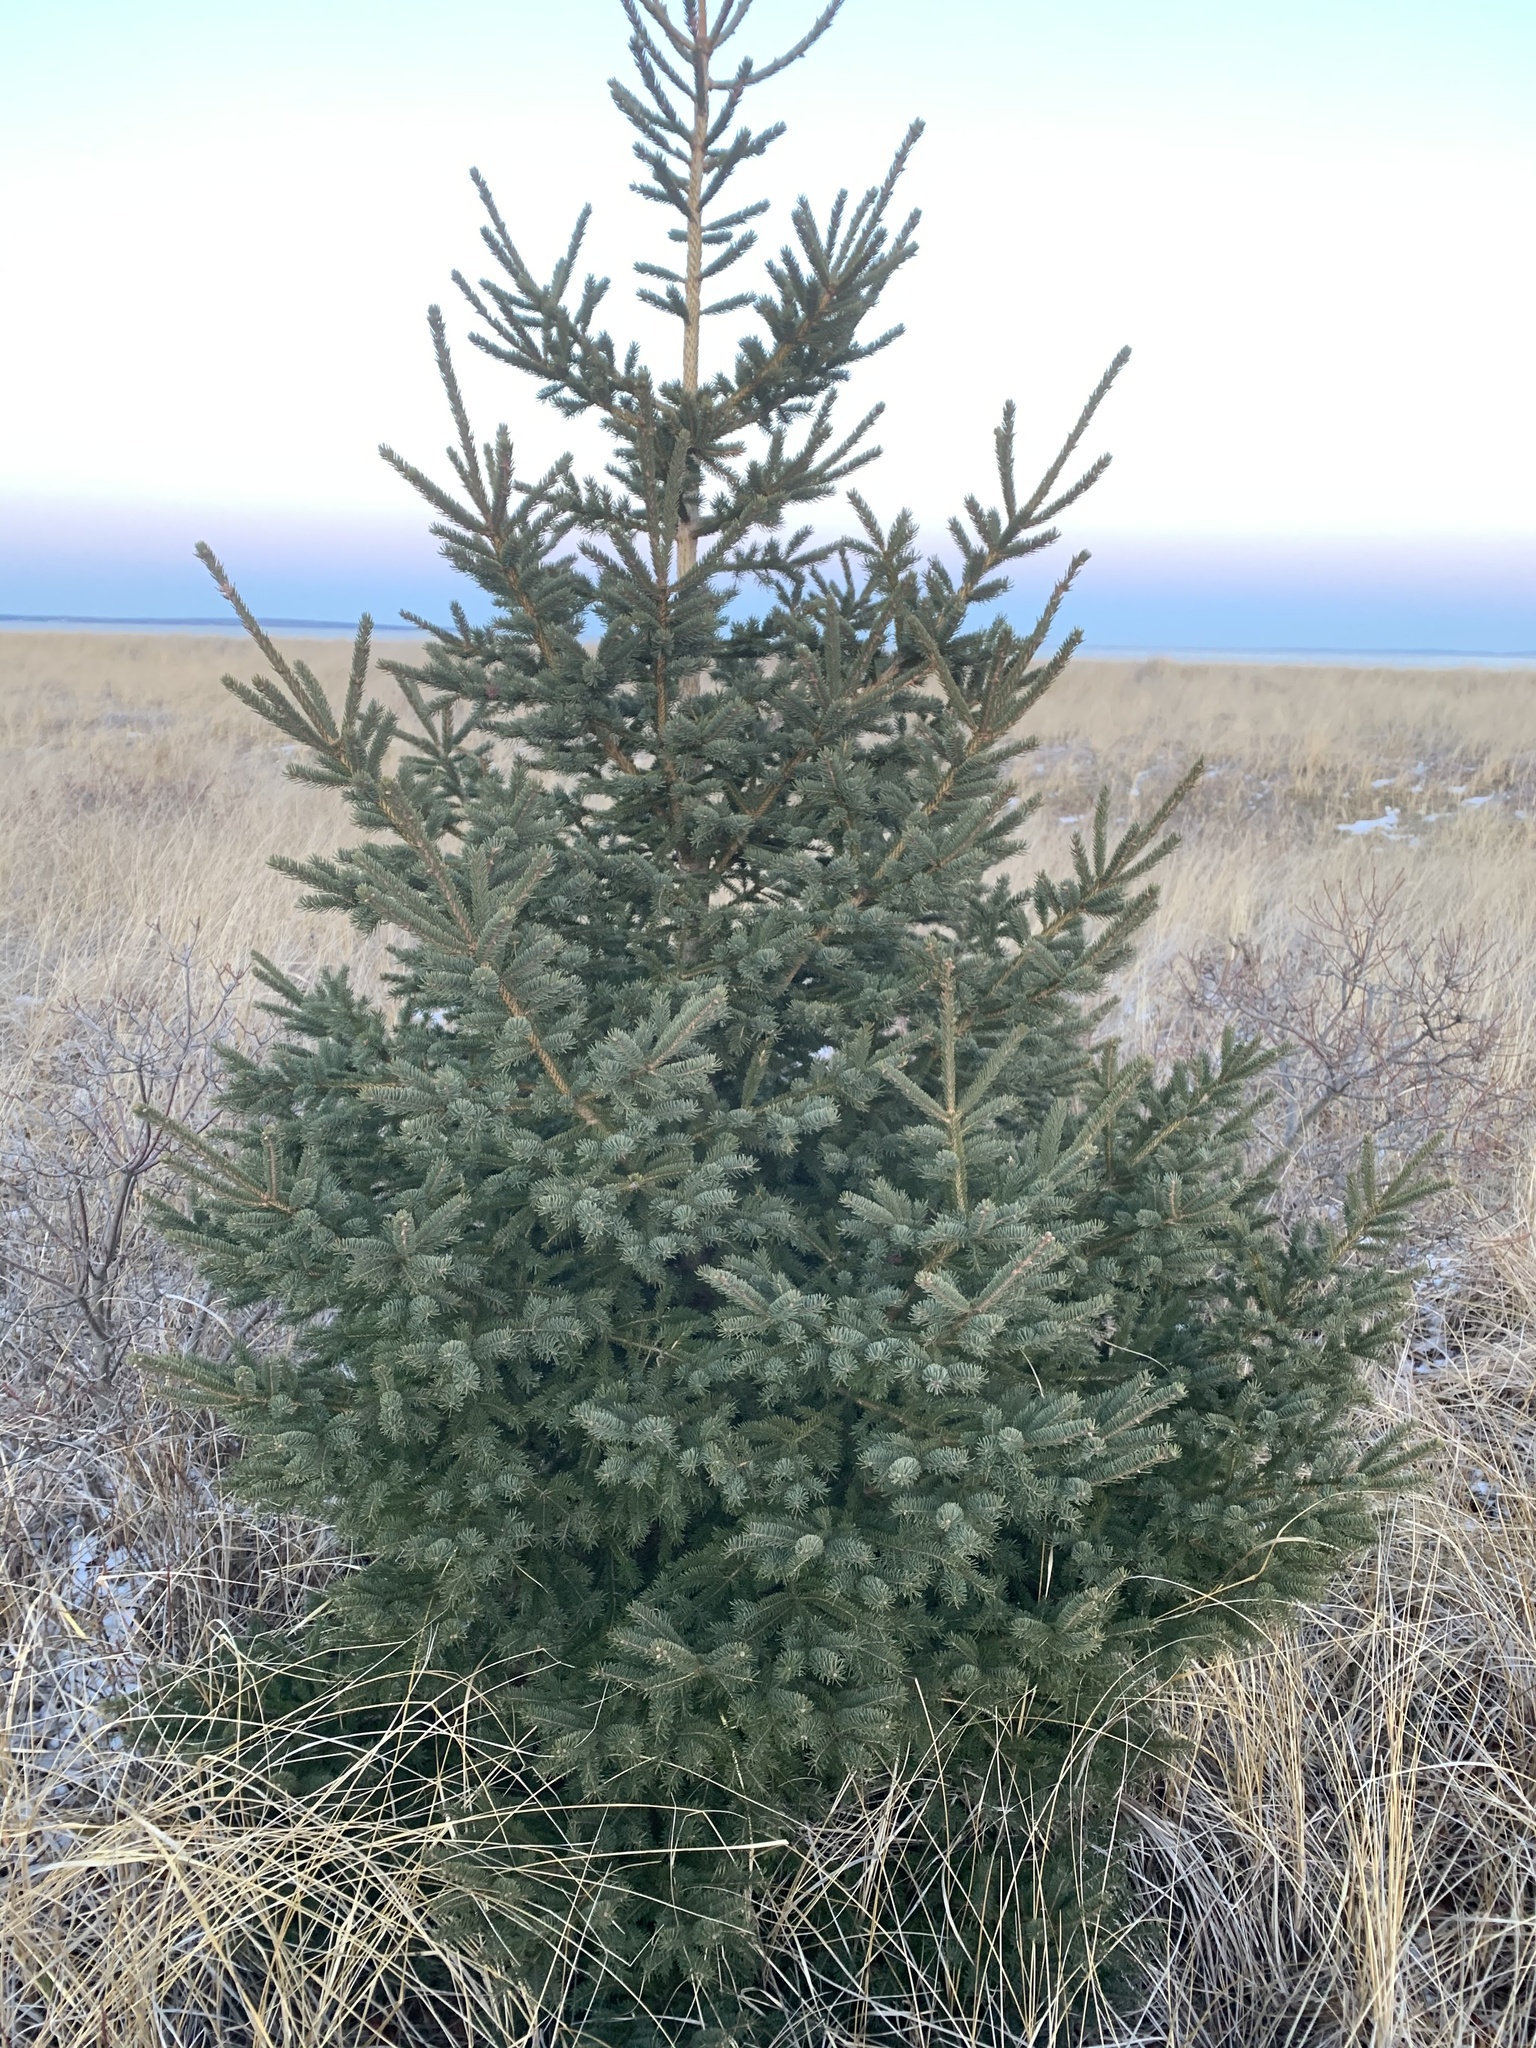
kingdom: Plantae
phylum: Tracheophyta
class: Pinopsida
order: Pinales
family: Pinaceae
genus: Picea
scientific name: Picea glauca
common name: White spruce
